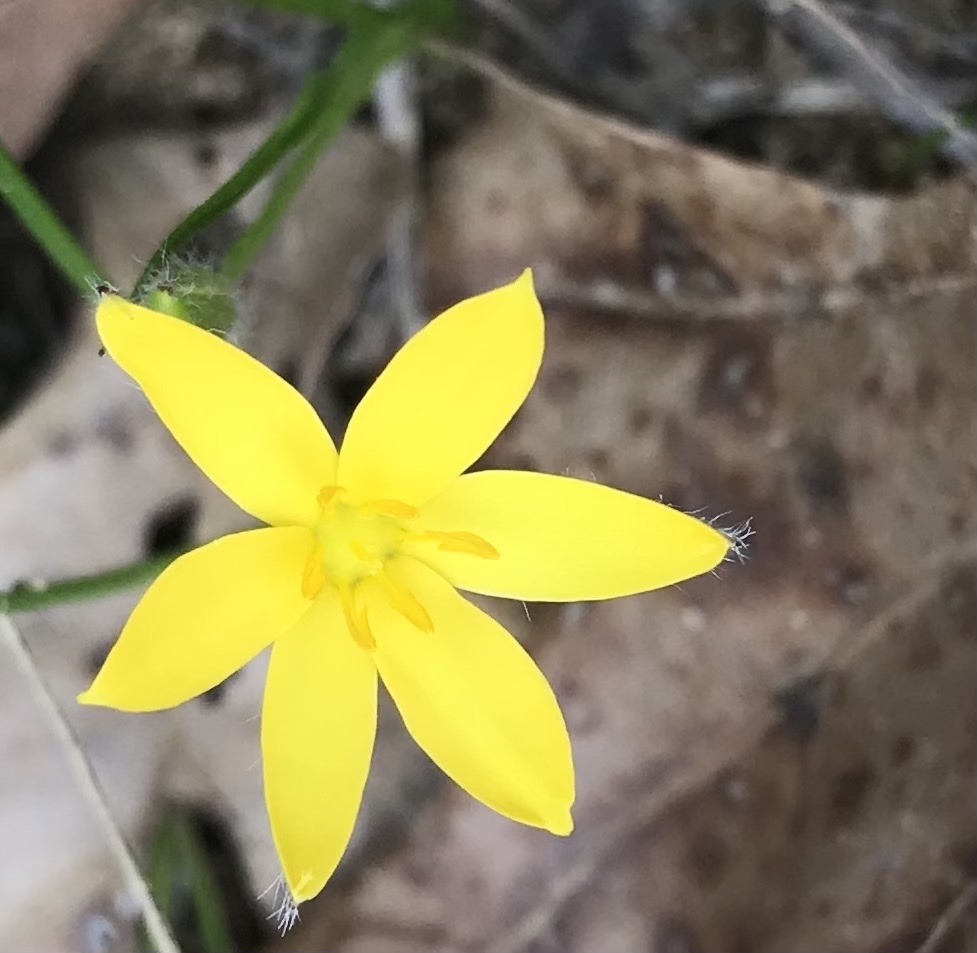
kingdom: Plantae
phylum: Tracheophyta
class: Liliopsida
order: Asparagales
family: Hypoxidaceae
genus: Hypoxis
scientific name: Hypoxis hirsuta
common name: Common goldstar
